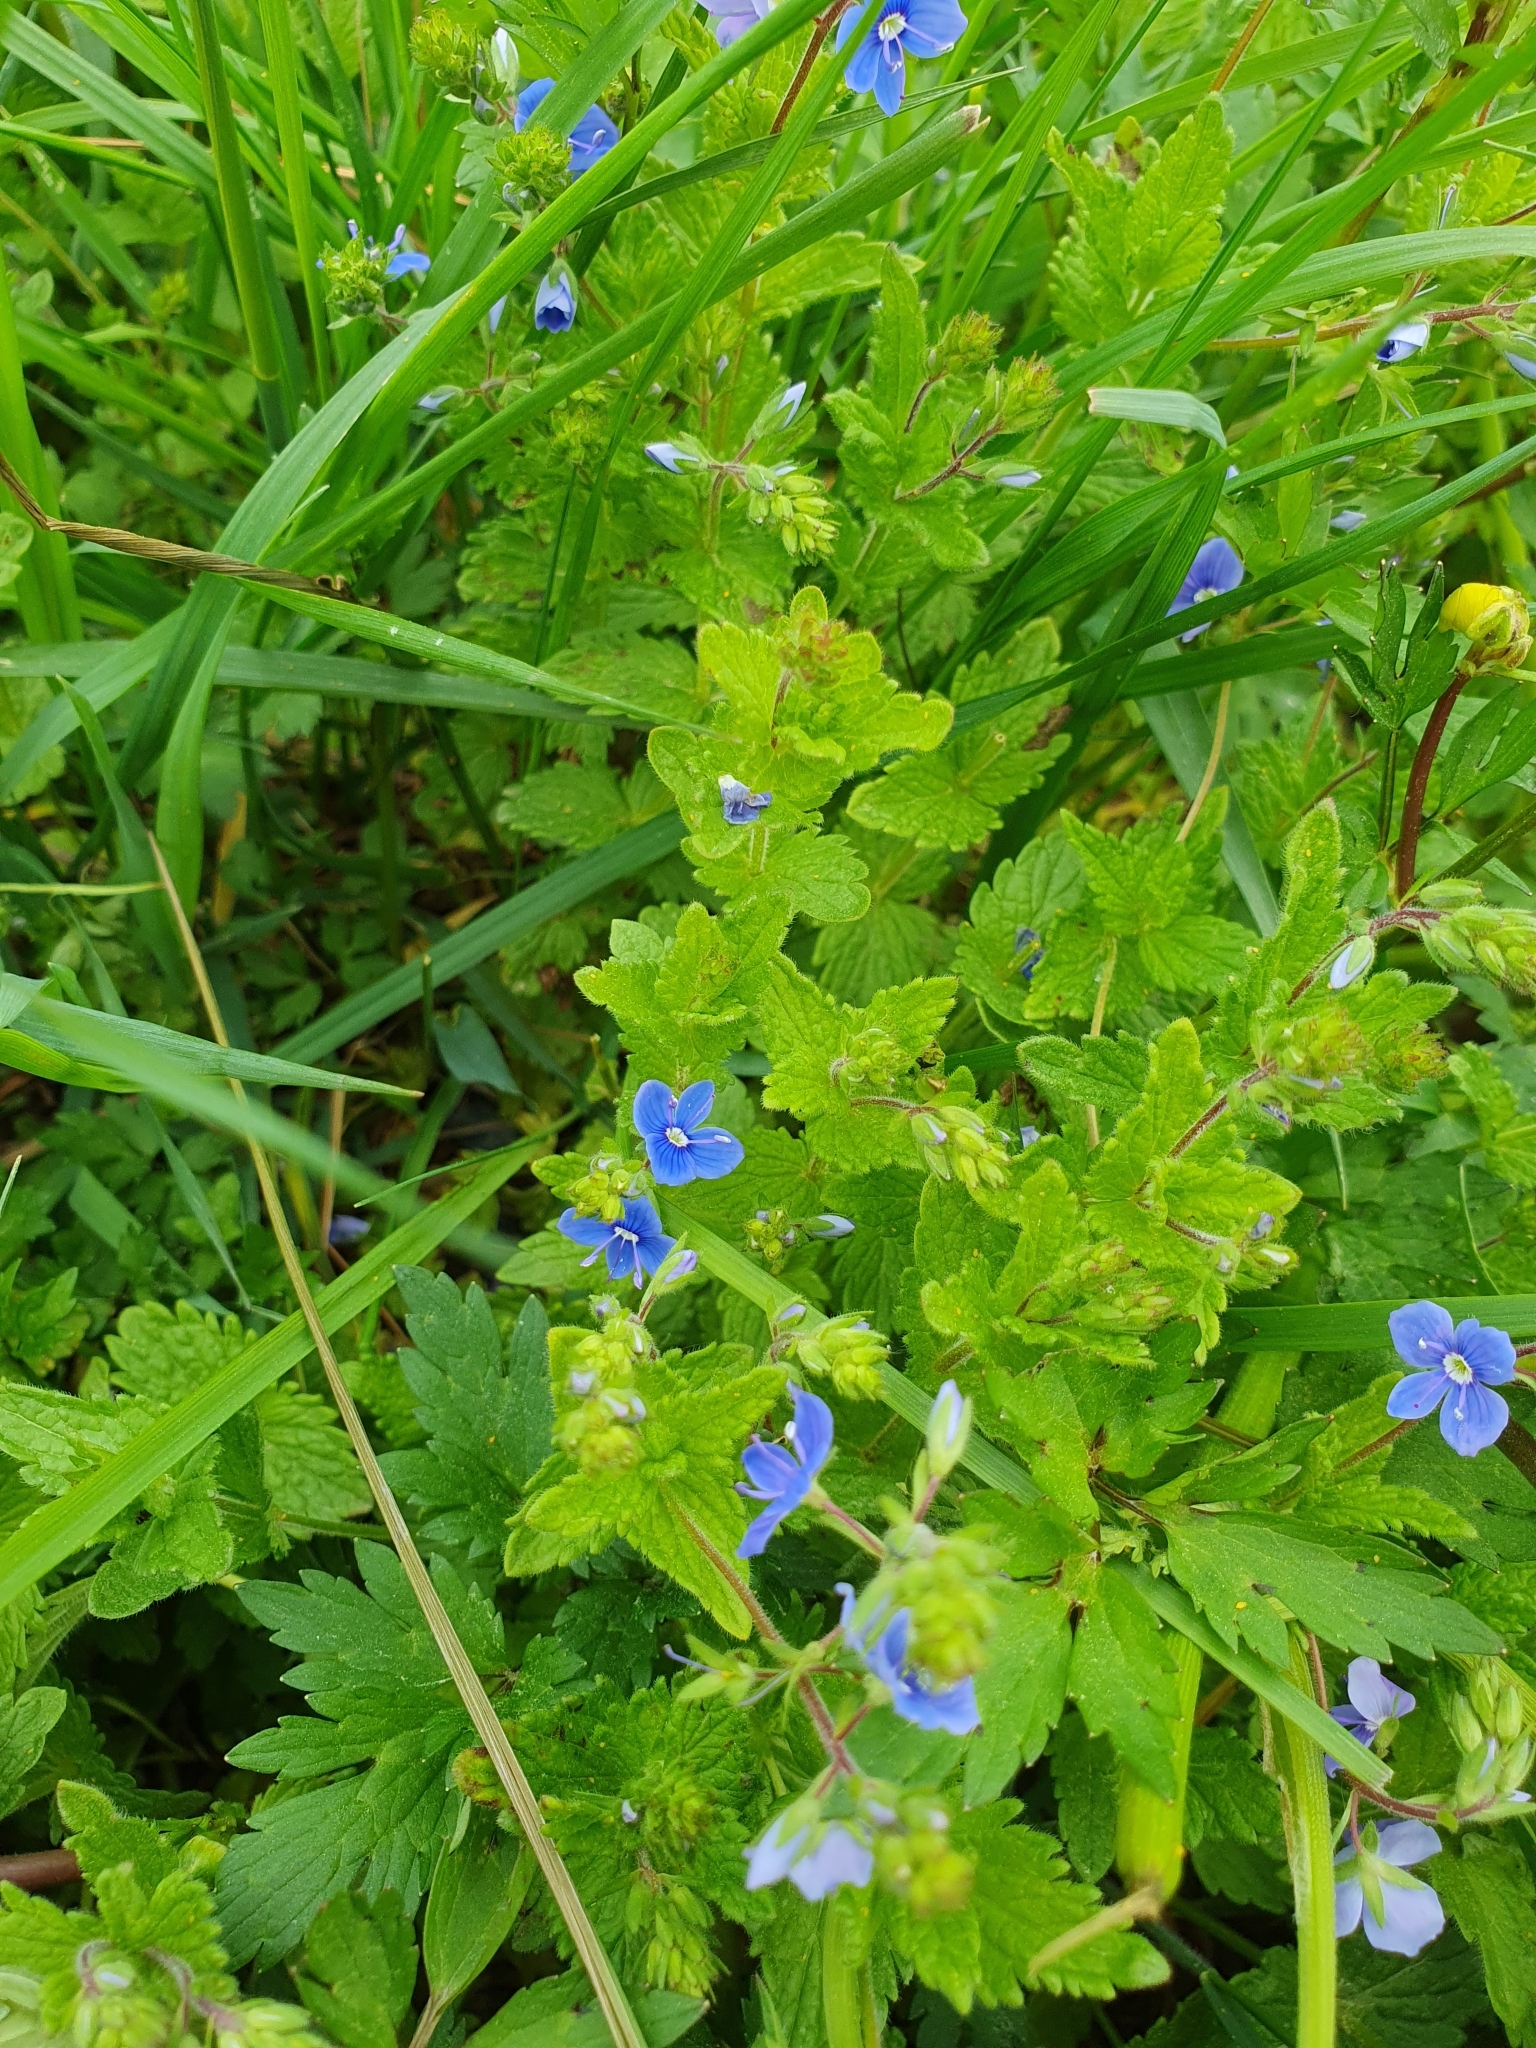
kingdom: Plantae
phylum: Tracheophyta
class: Magnoliopsida
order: Lamiales
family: Plantaginaceae
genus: Veronica
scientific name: Veronica chamaedrys
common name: Germander speedwell
